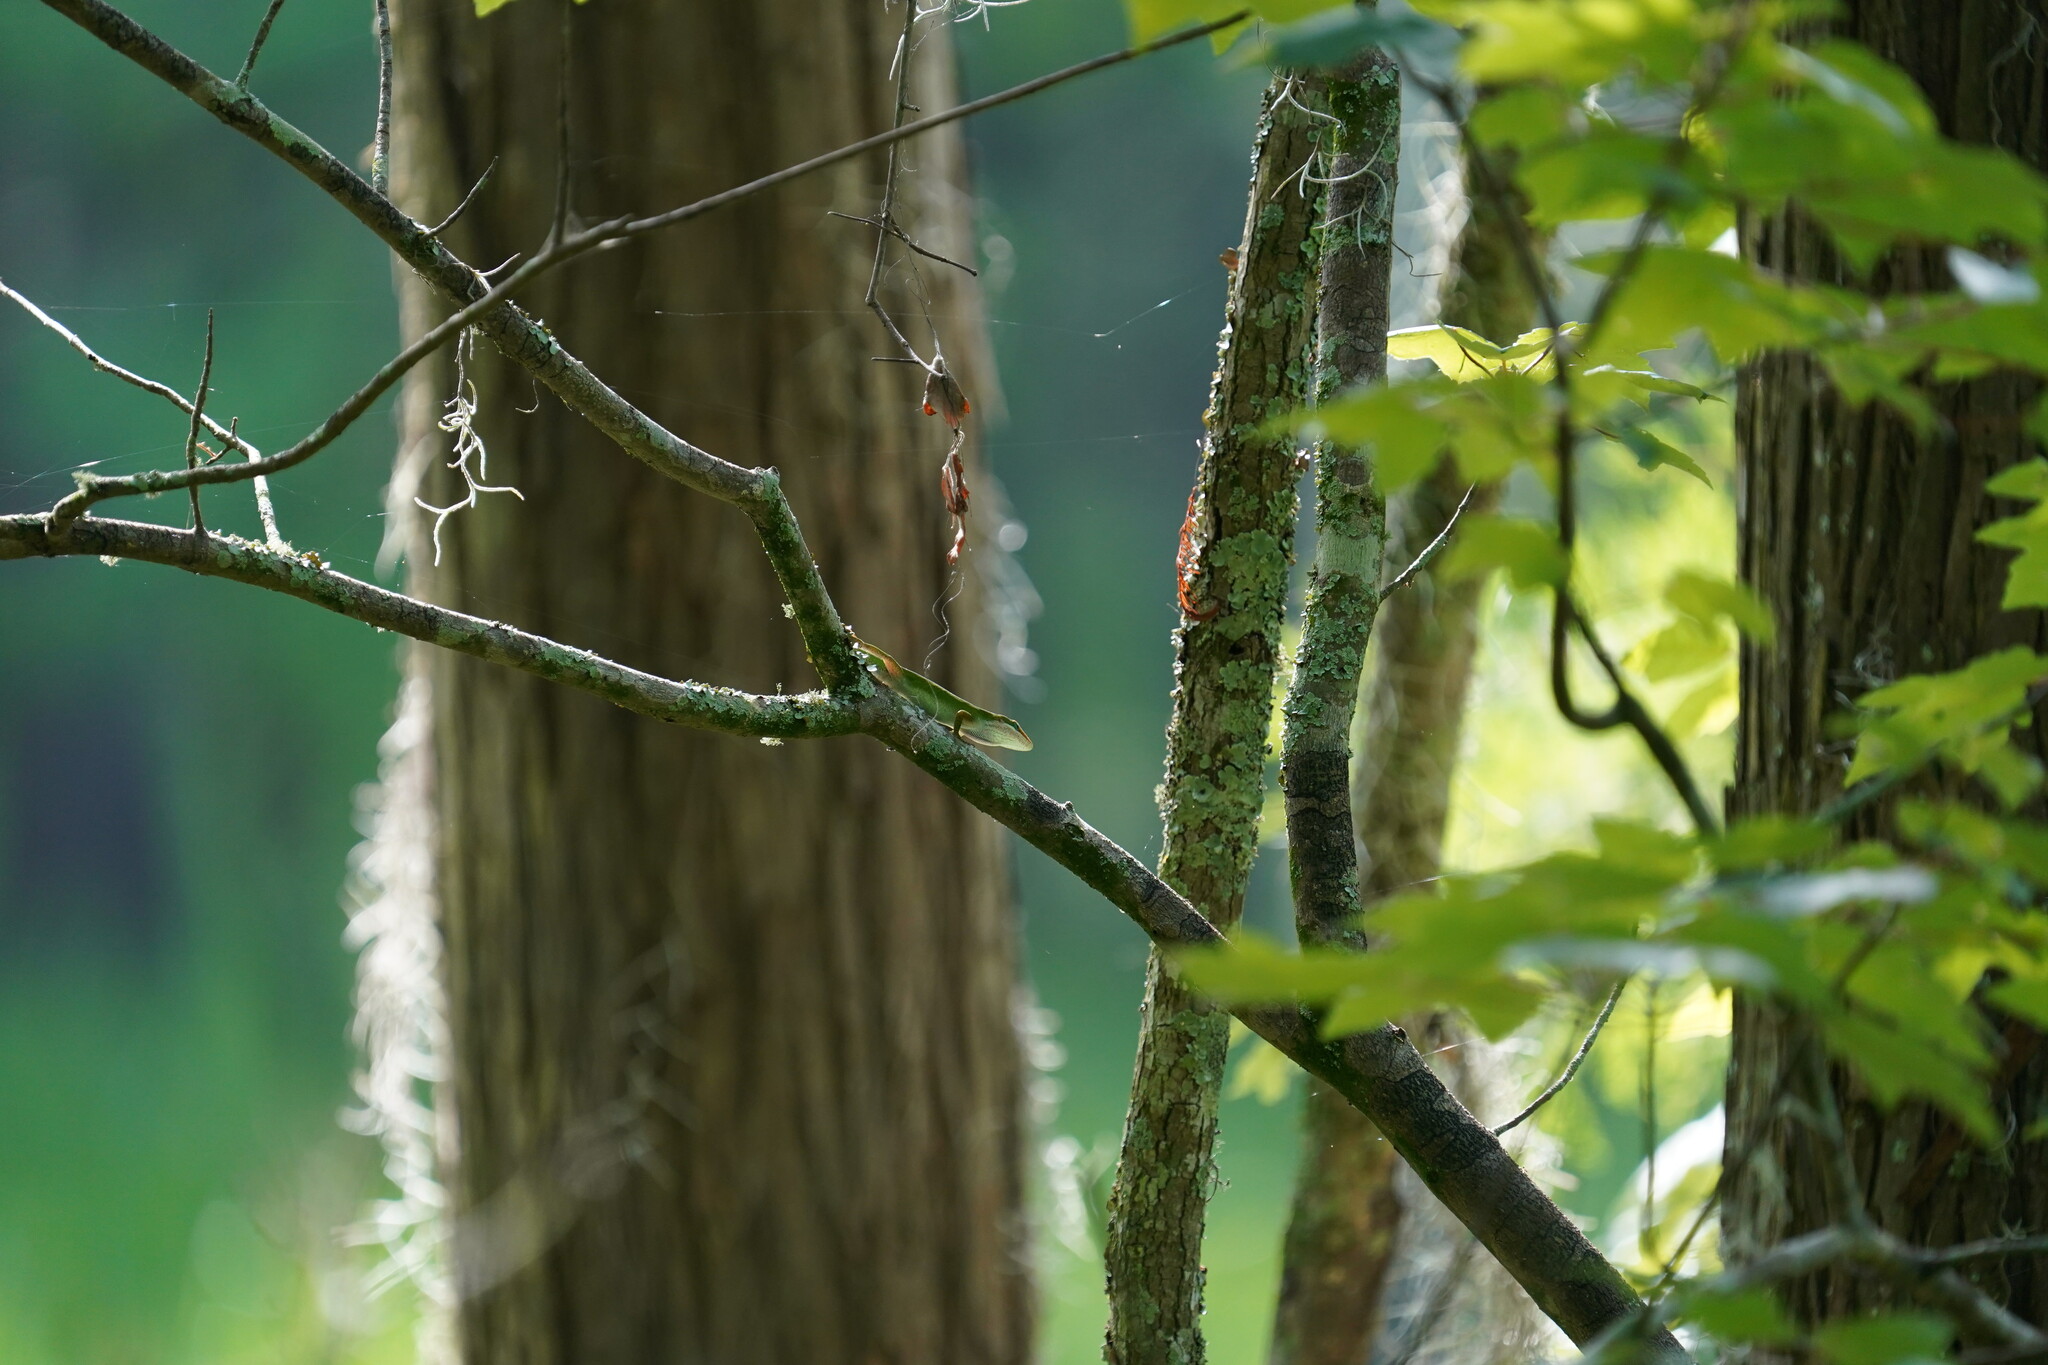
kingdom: Animalia
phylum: Chordata
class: Squamata
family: Dactyloidae
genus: Anolis
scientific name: Anolis carolinensis
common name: Green anole
